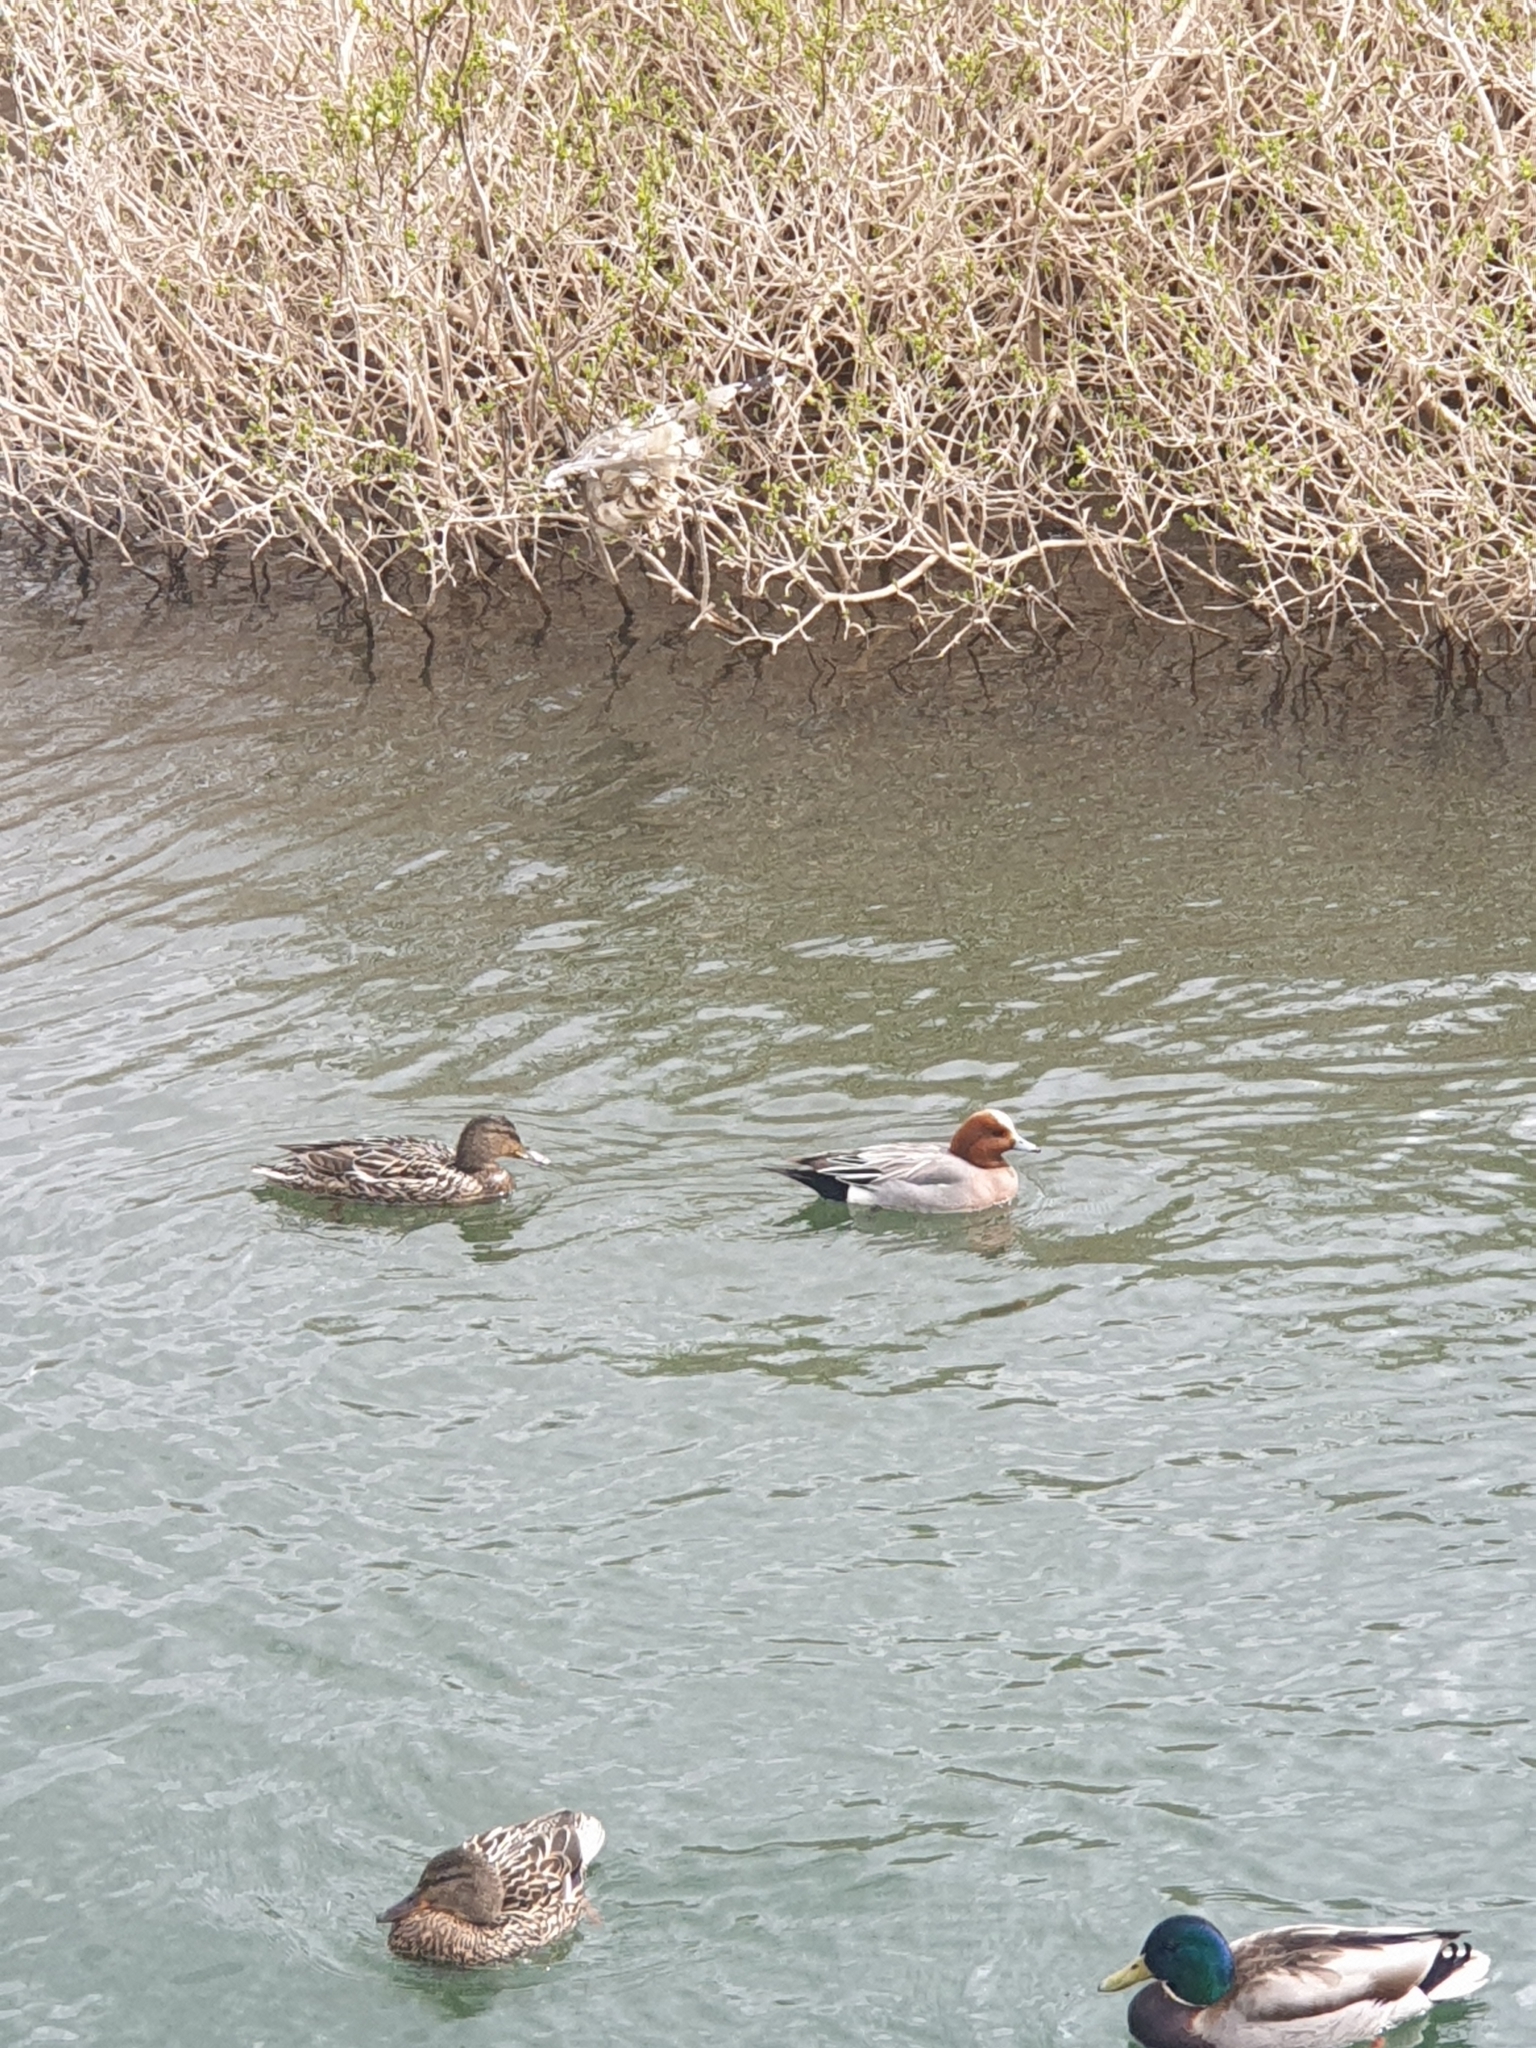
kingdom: Animalia
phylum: Chordata
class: Aves
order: Anseriformes
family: Anatidae
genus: Mareca
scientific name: Mareca penelope
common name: Eurasian wigeon
